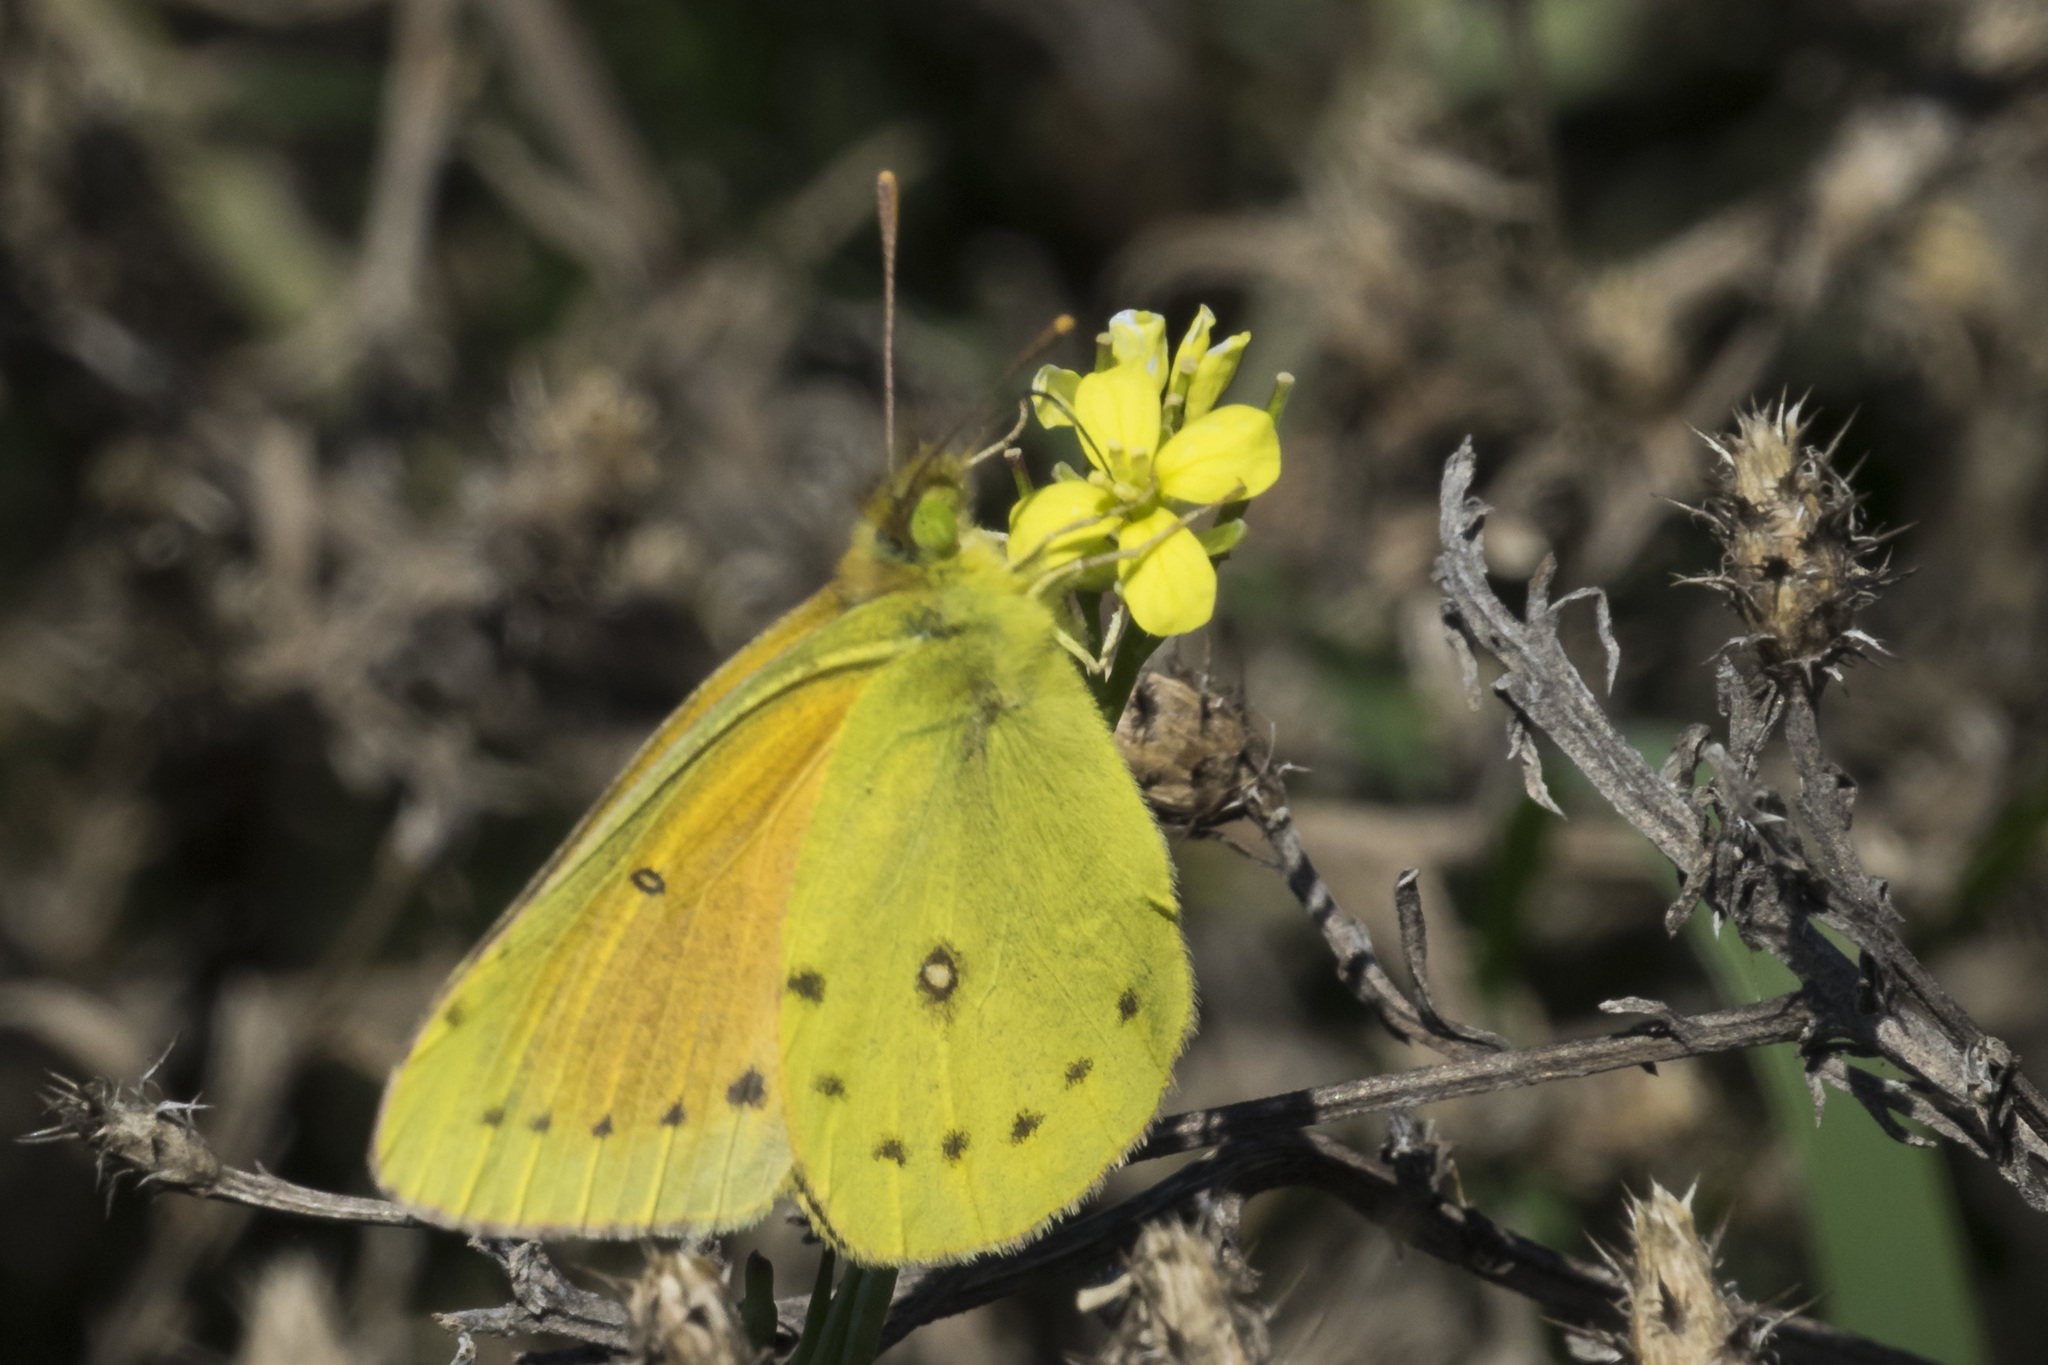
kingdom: Animalia
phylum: Arthropoda
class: Insecta
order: Lepidoptera
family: Pieridae
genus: Colias
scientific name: Colias lesbia
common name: Lesbia clouded yellow
